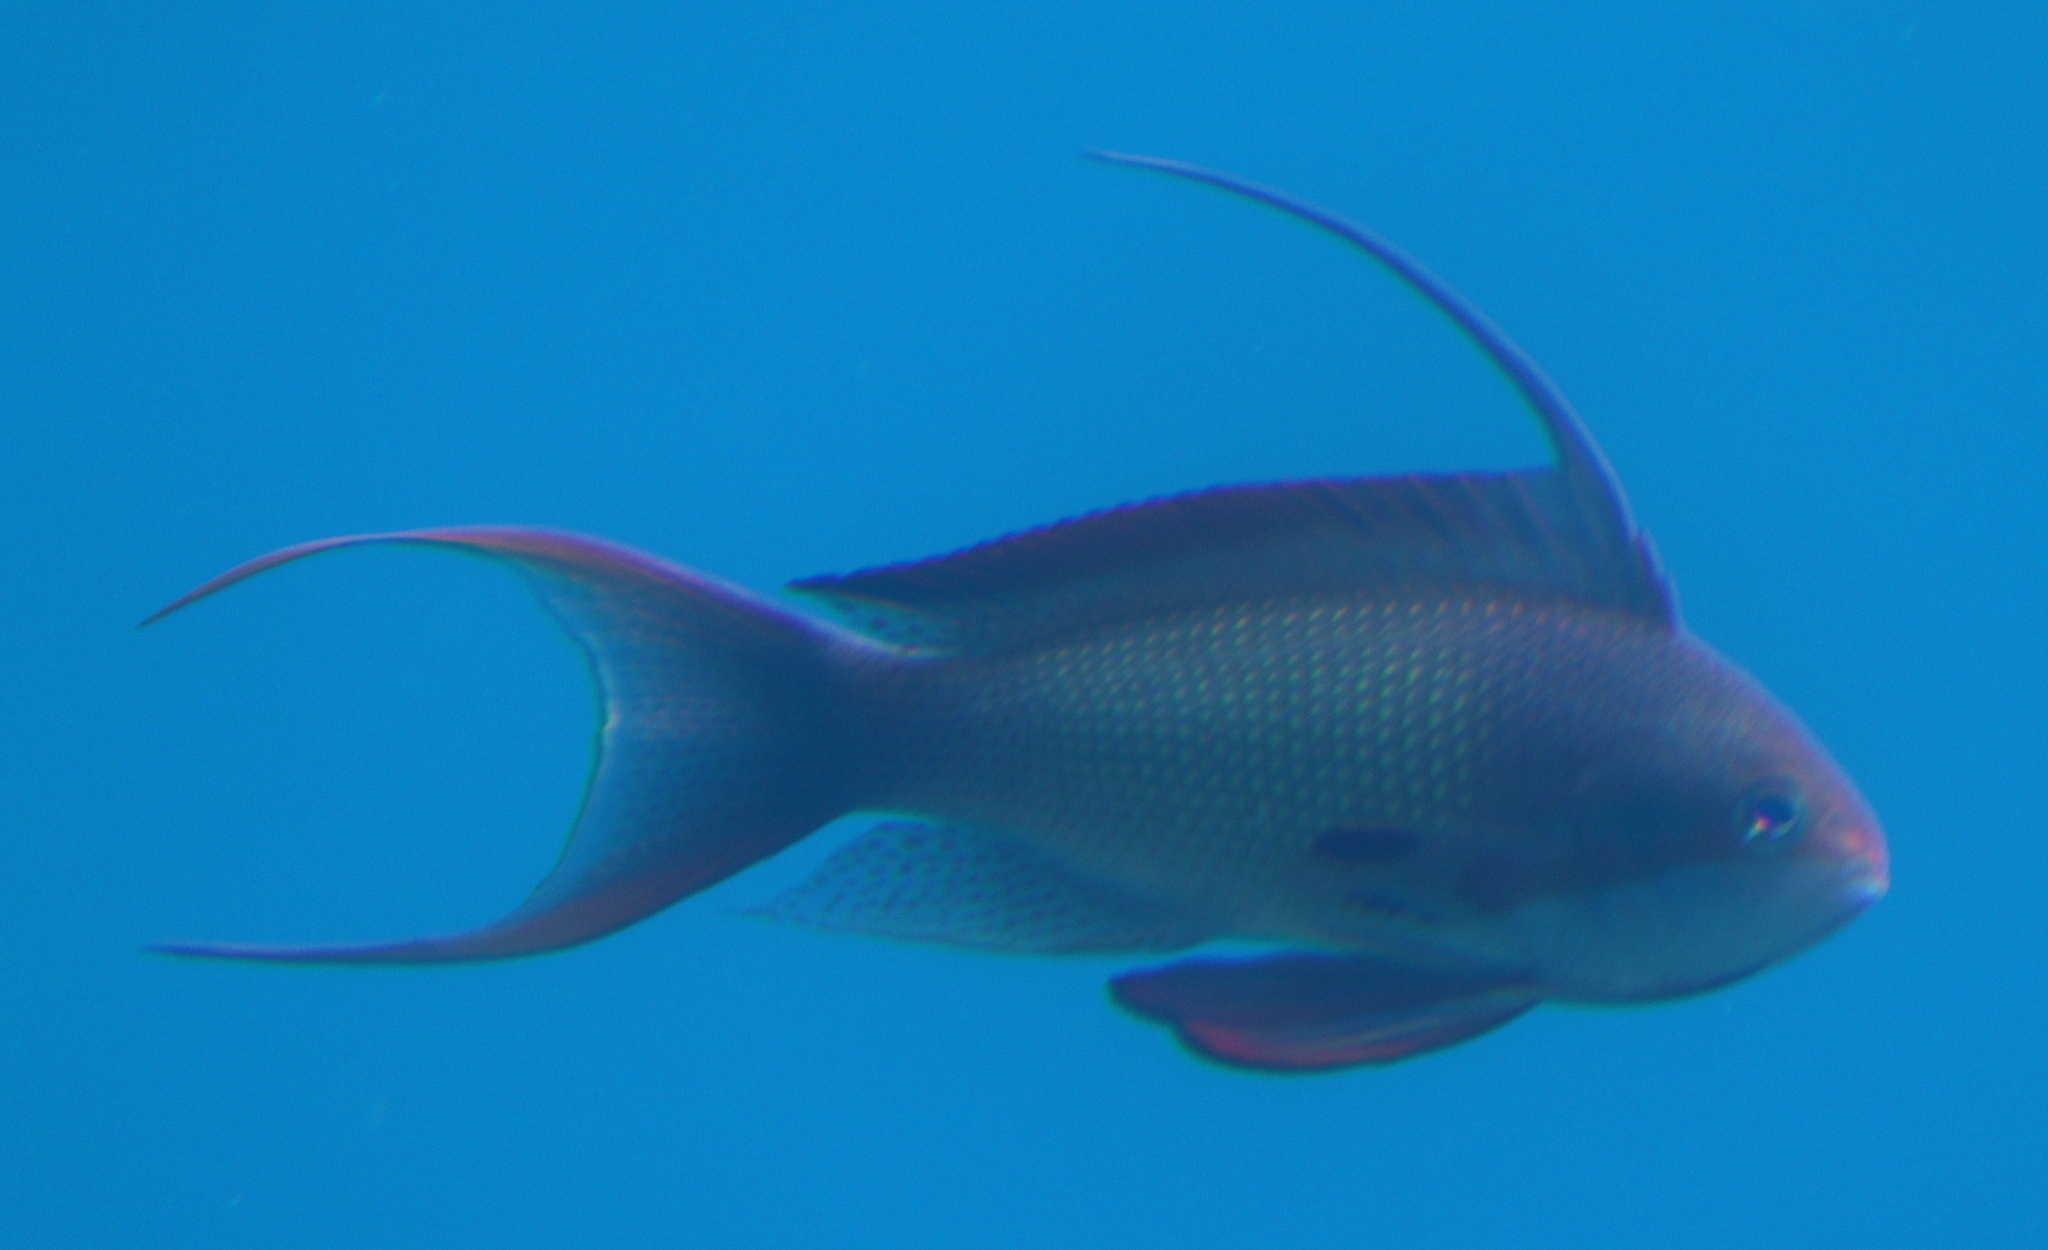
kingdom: Animalia
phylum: Chordata
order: Perciformes
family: Serranidae
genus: Pseudanthias
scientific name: Pseudanthias squamipinnis
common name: Scalefin anthias
